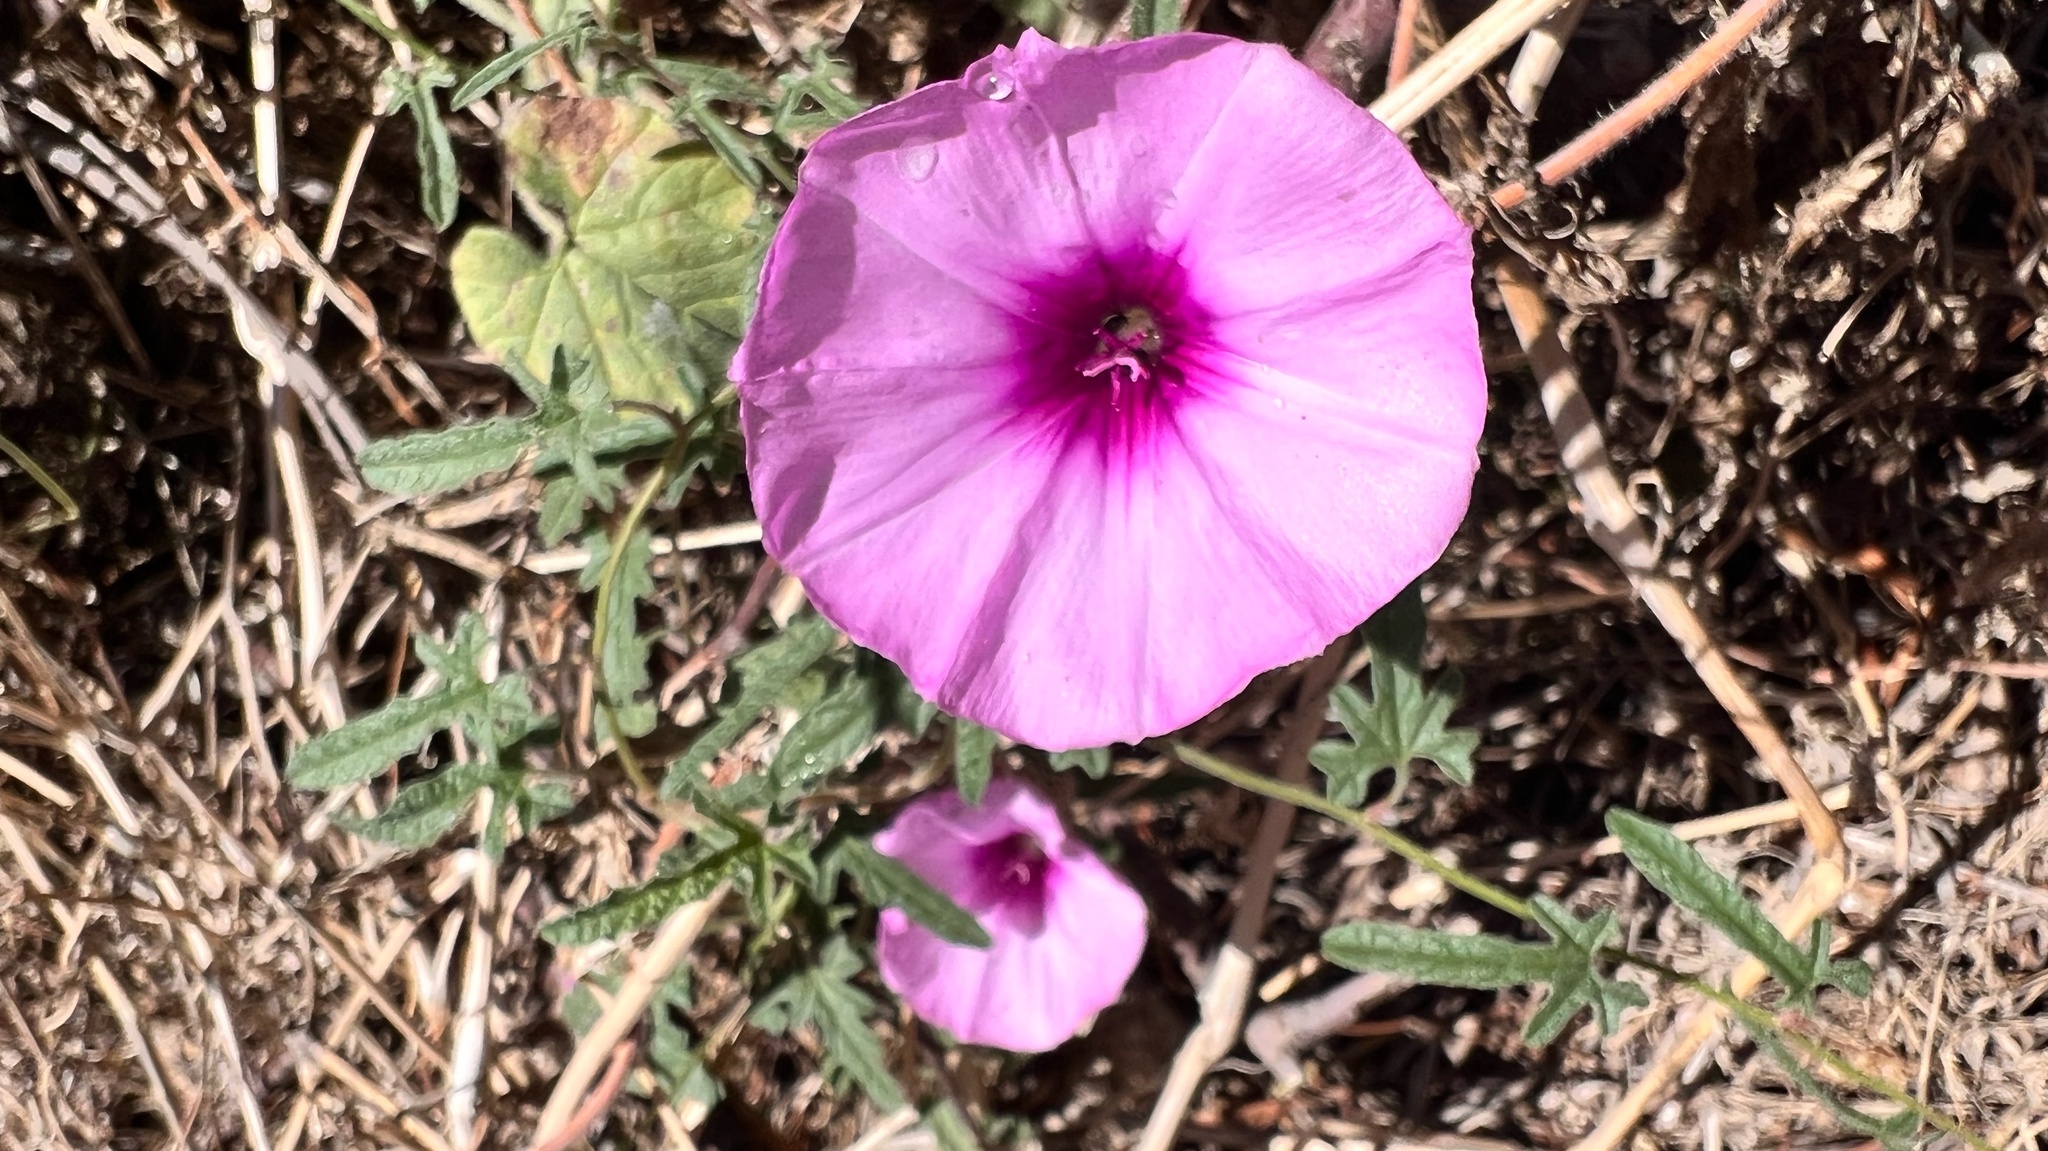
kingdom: Plantae
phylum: Tracheophyta
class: Magnoliopsida
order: Solanales
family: Convolvulaceae
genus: Convolvulus
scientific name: Convolvulus althaeoides
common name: Mallow bindweed
